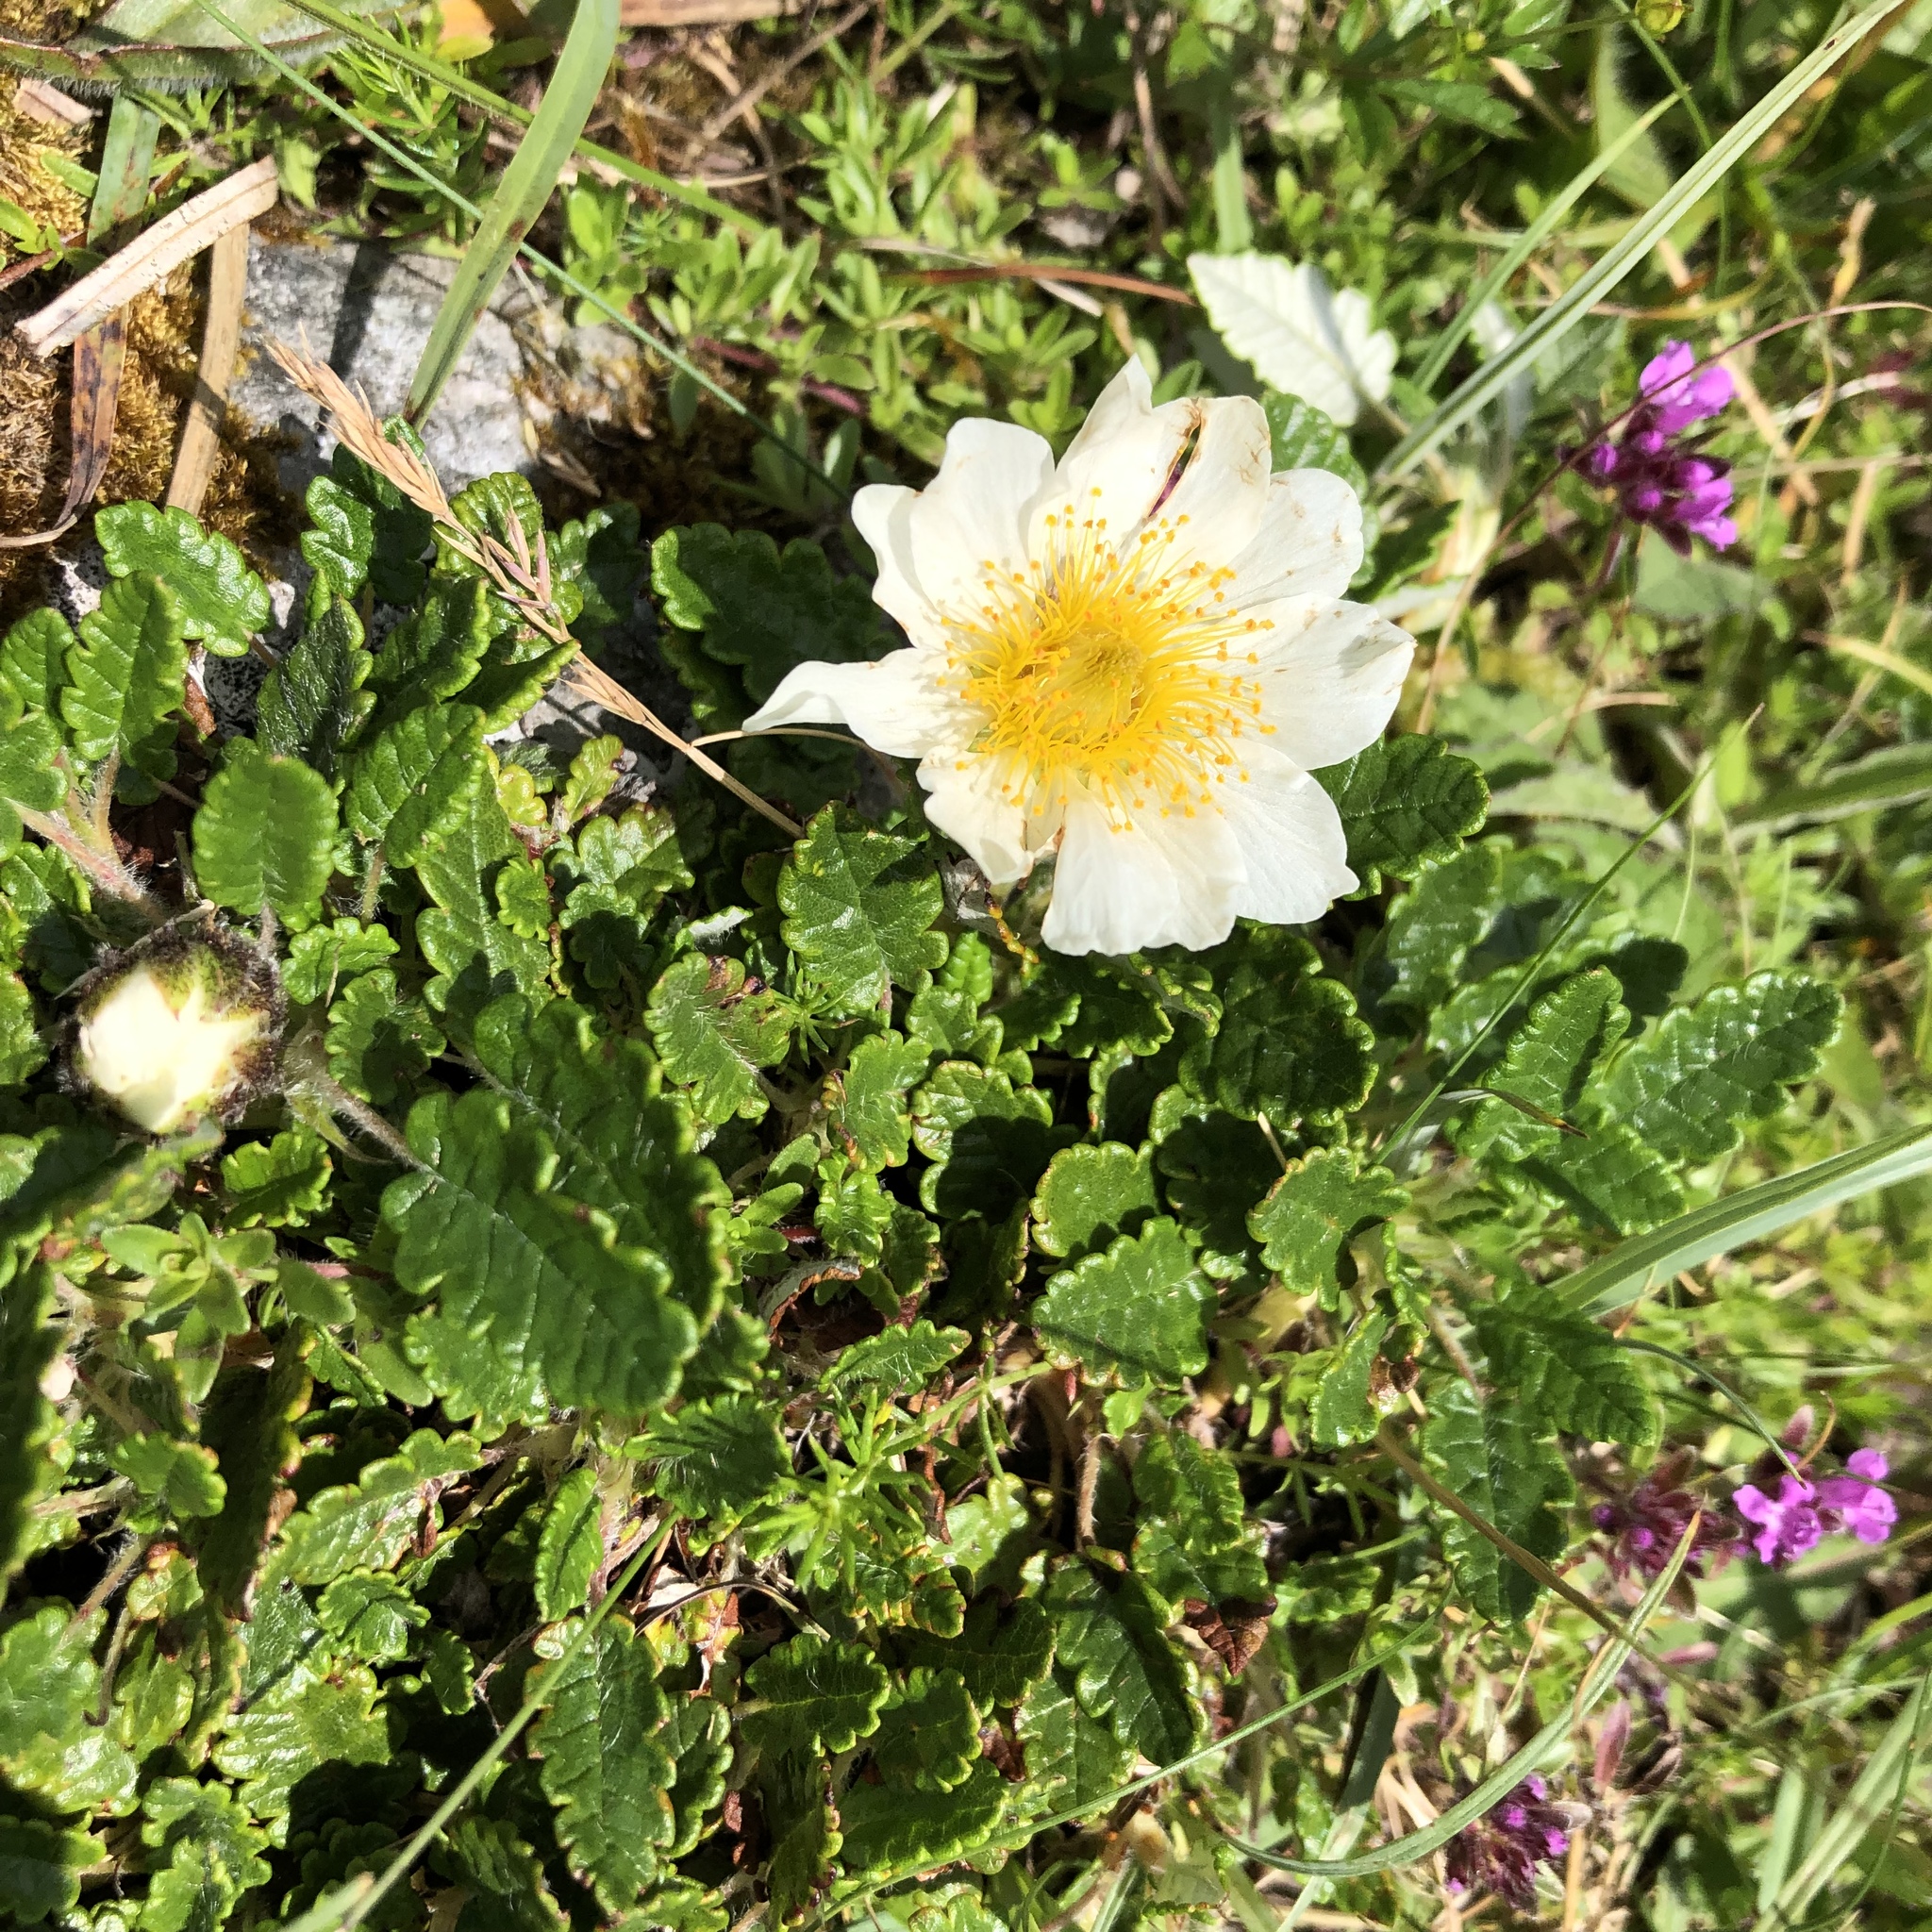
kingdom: Plantae
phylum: Tracheophyta
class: Magnoliopsida
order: Rosales
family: Rosaceae
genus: Dryas
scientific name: Dryas octopetala
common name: Eight-petal mountain-avens
